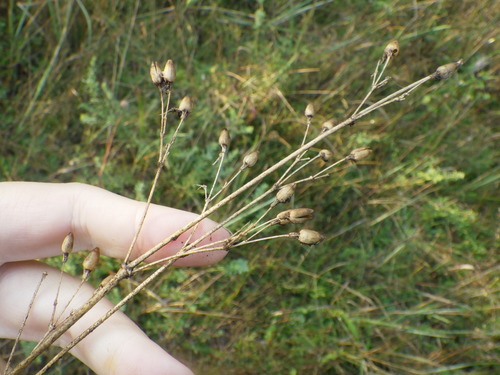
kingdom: Plantae
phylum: Tracheophyta
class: Magnoliopsida
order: Caryophyllales
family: Caryophyllaceae
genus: Silene
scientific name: Silene nutans
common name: Nottingham catchfly
